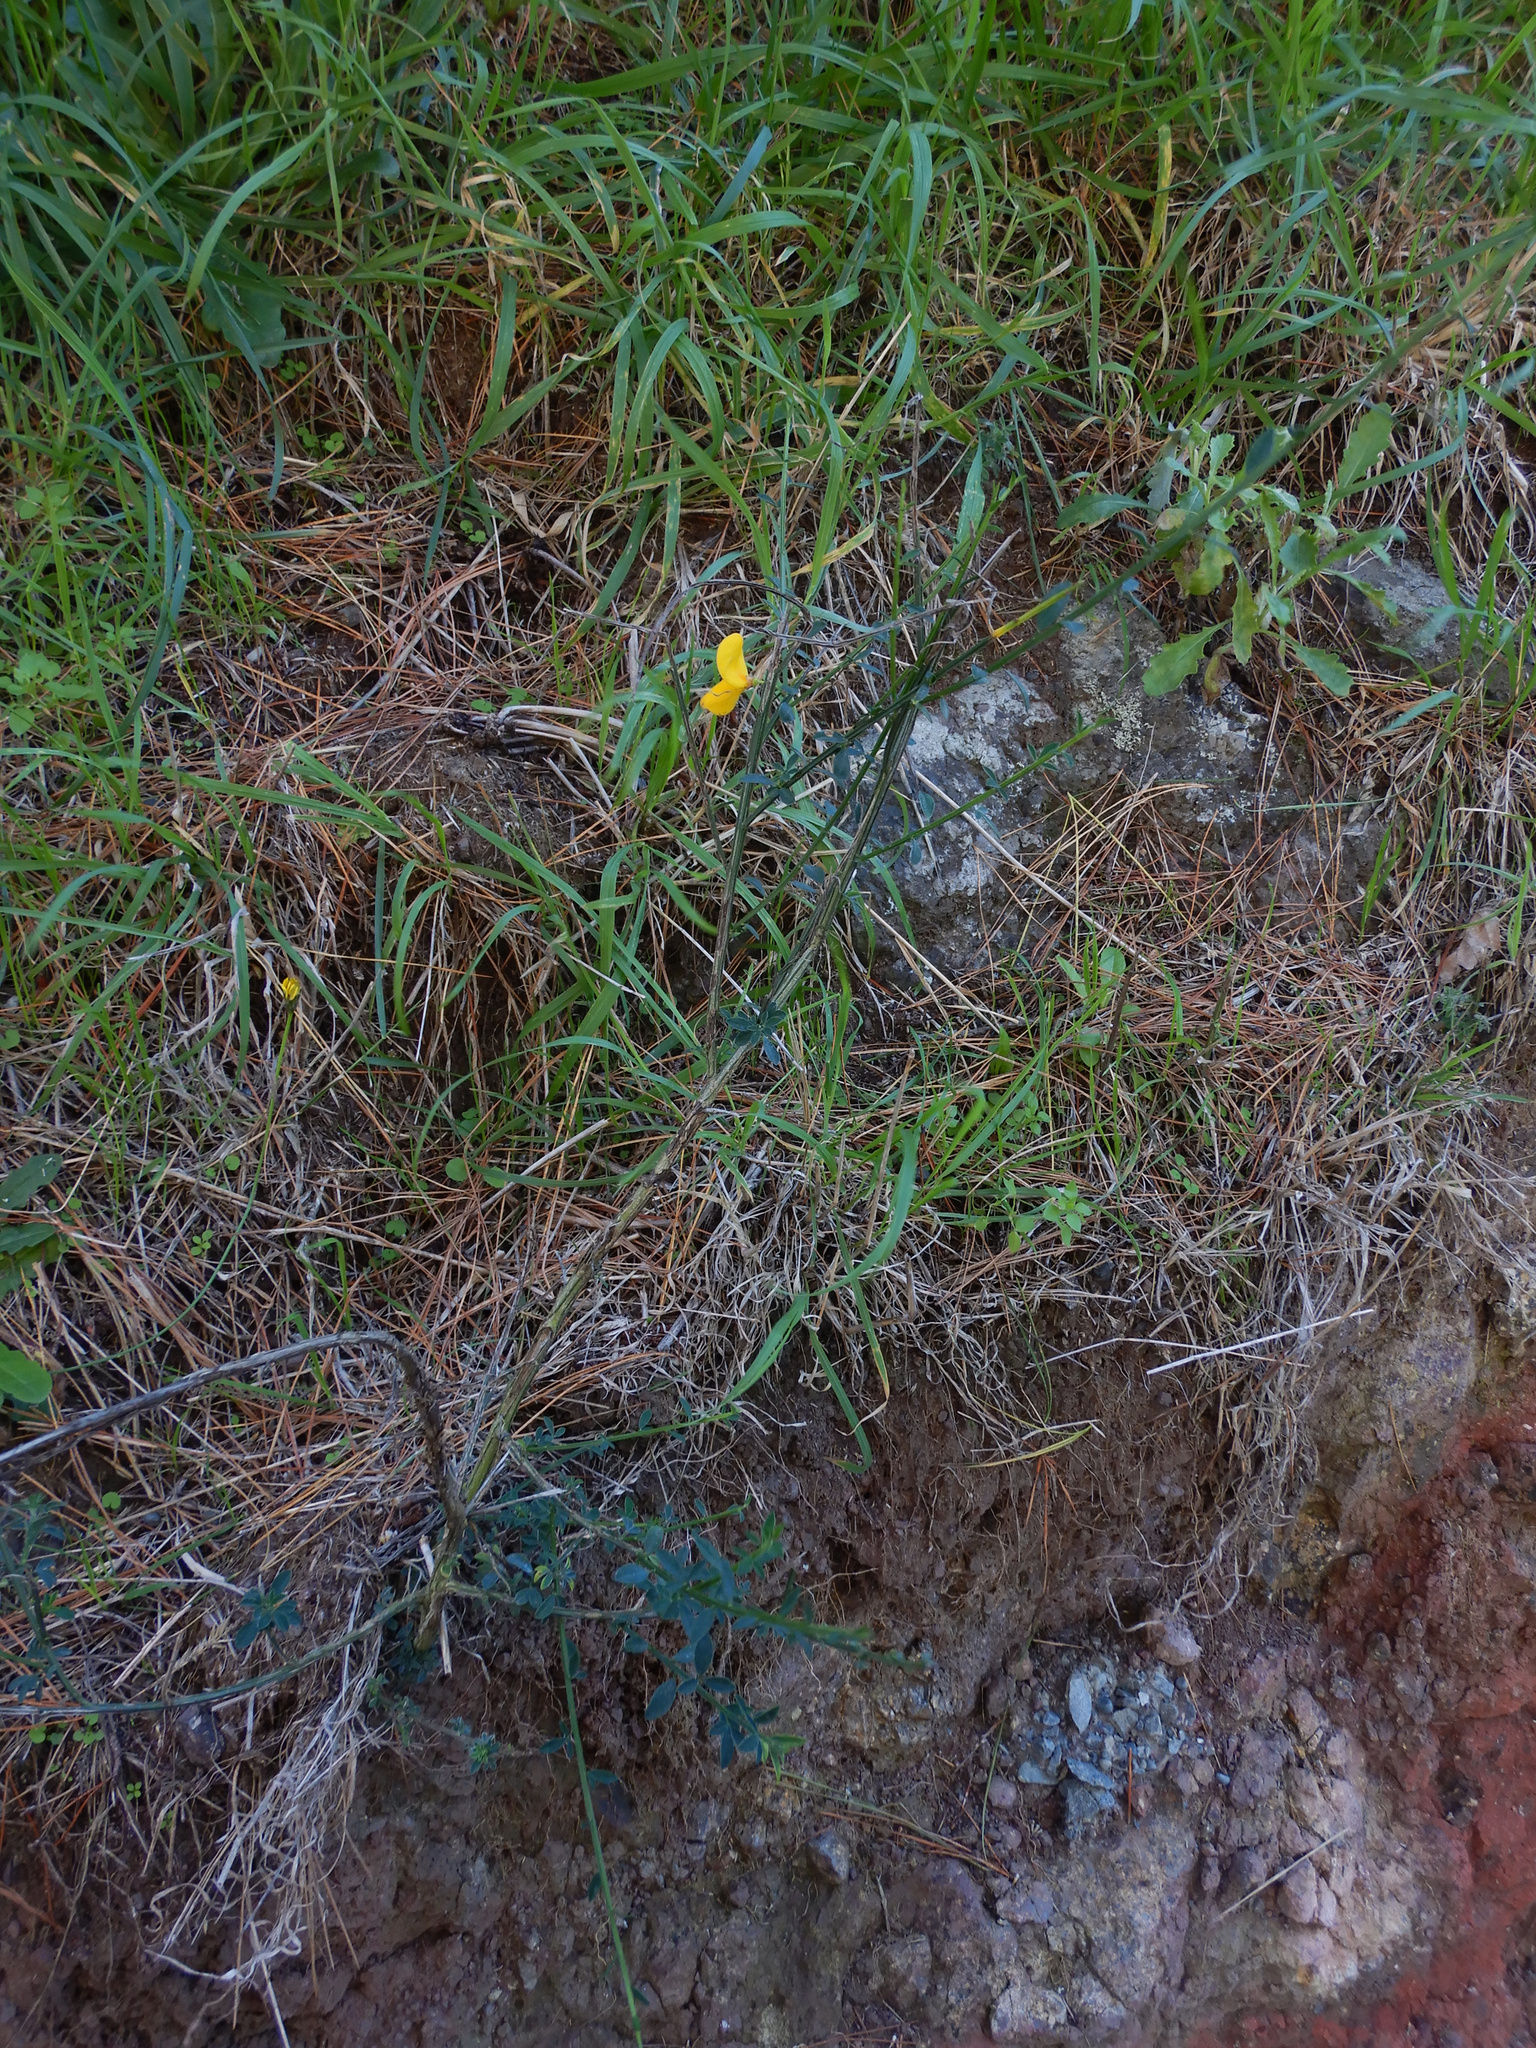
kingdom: Plantae
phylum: Tracheophyta
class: Magnoliopsida
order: Asterales
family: Asteraceae
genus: Senecio
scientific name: Senecio glomeratus
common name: Cutleaf burnweed
